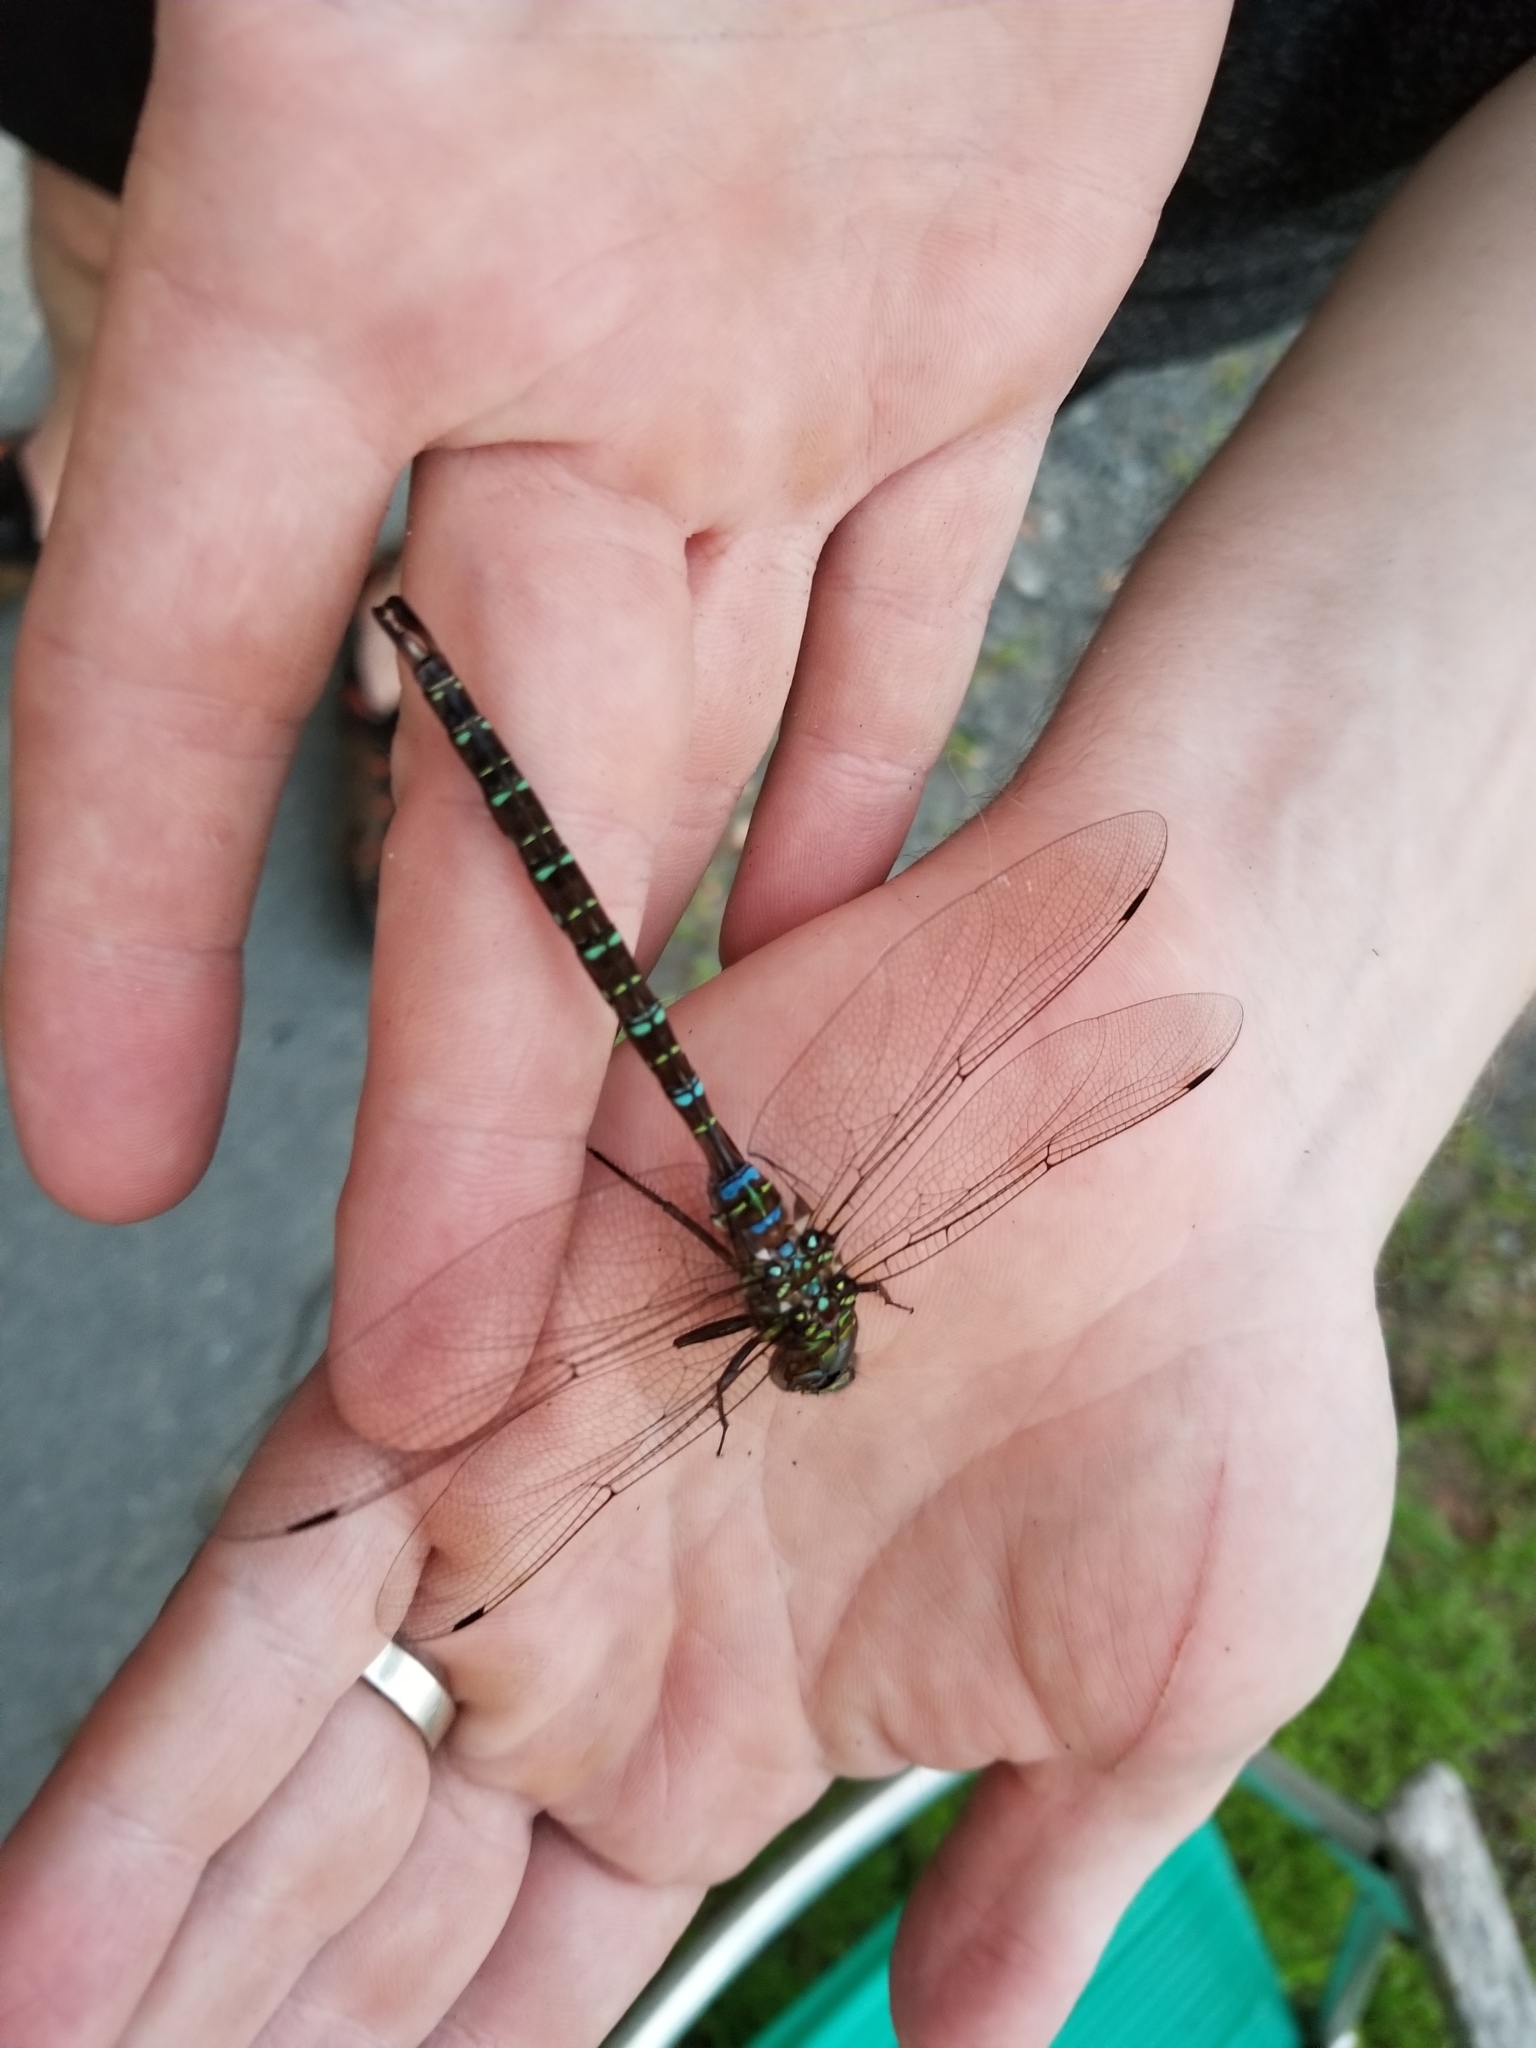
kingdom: Animalia
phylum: Arthropoda
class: Insecta
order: Odonata
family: Aeshnidae
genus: Aeshna
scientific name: Aeshna umbrosa
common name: Shadow darner
